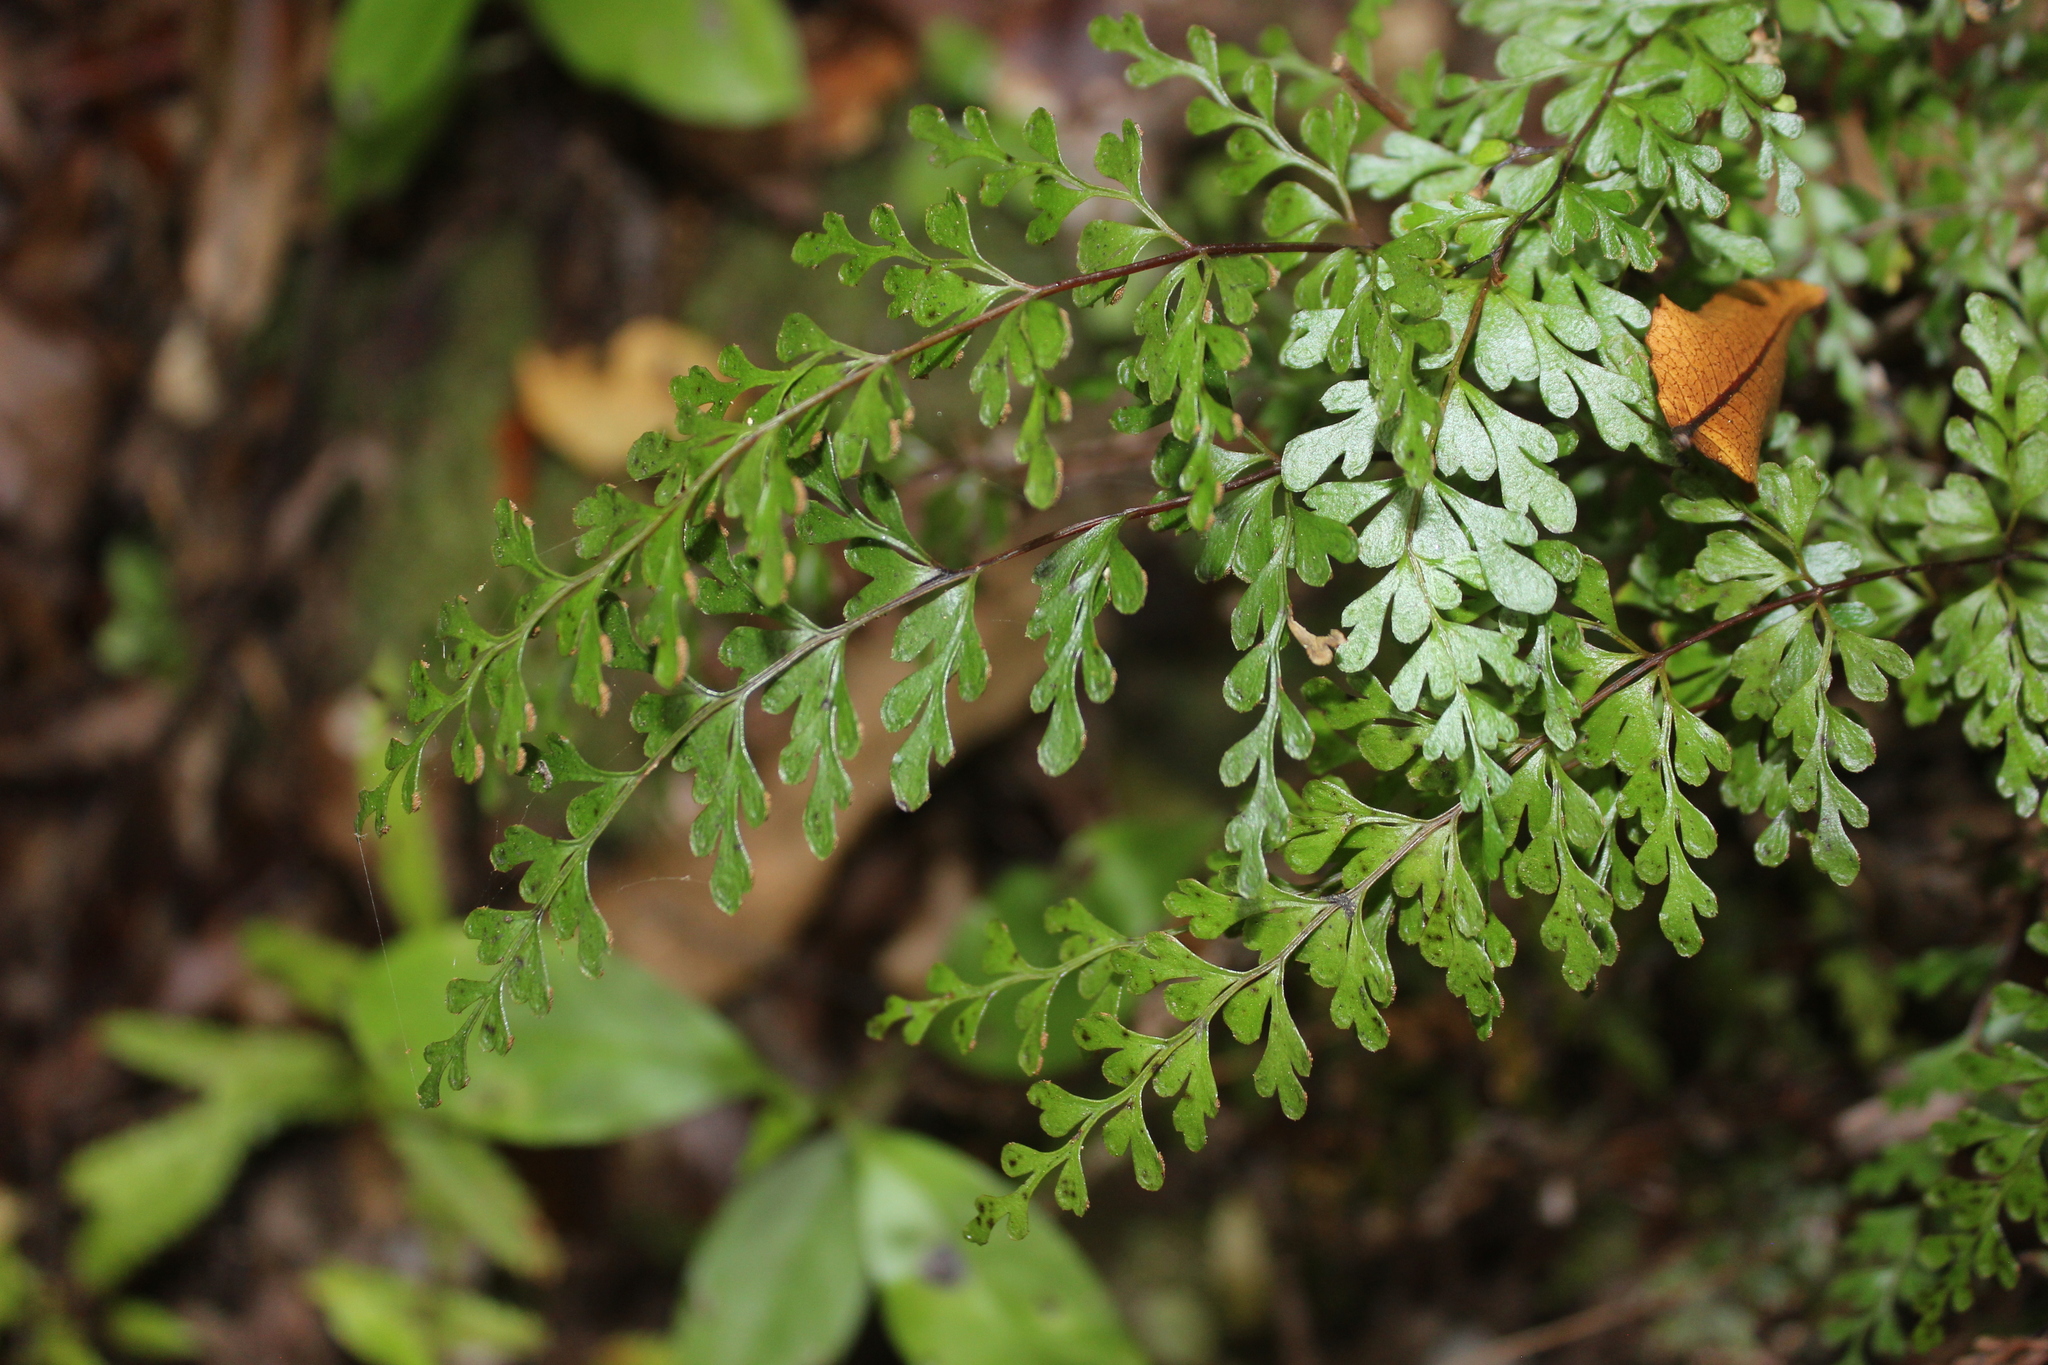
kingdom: Plantae
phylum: Tracheophyta
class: Polypodiopsida
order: Polypodiales
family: Lindsaeaceae
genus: Lindsaea
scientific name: Lindsaea trichomanoides
